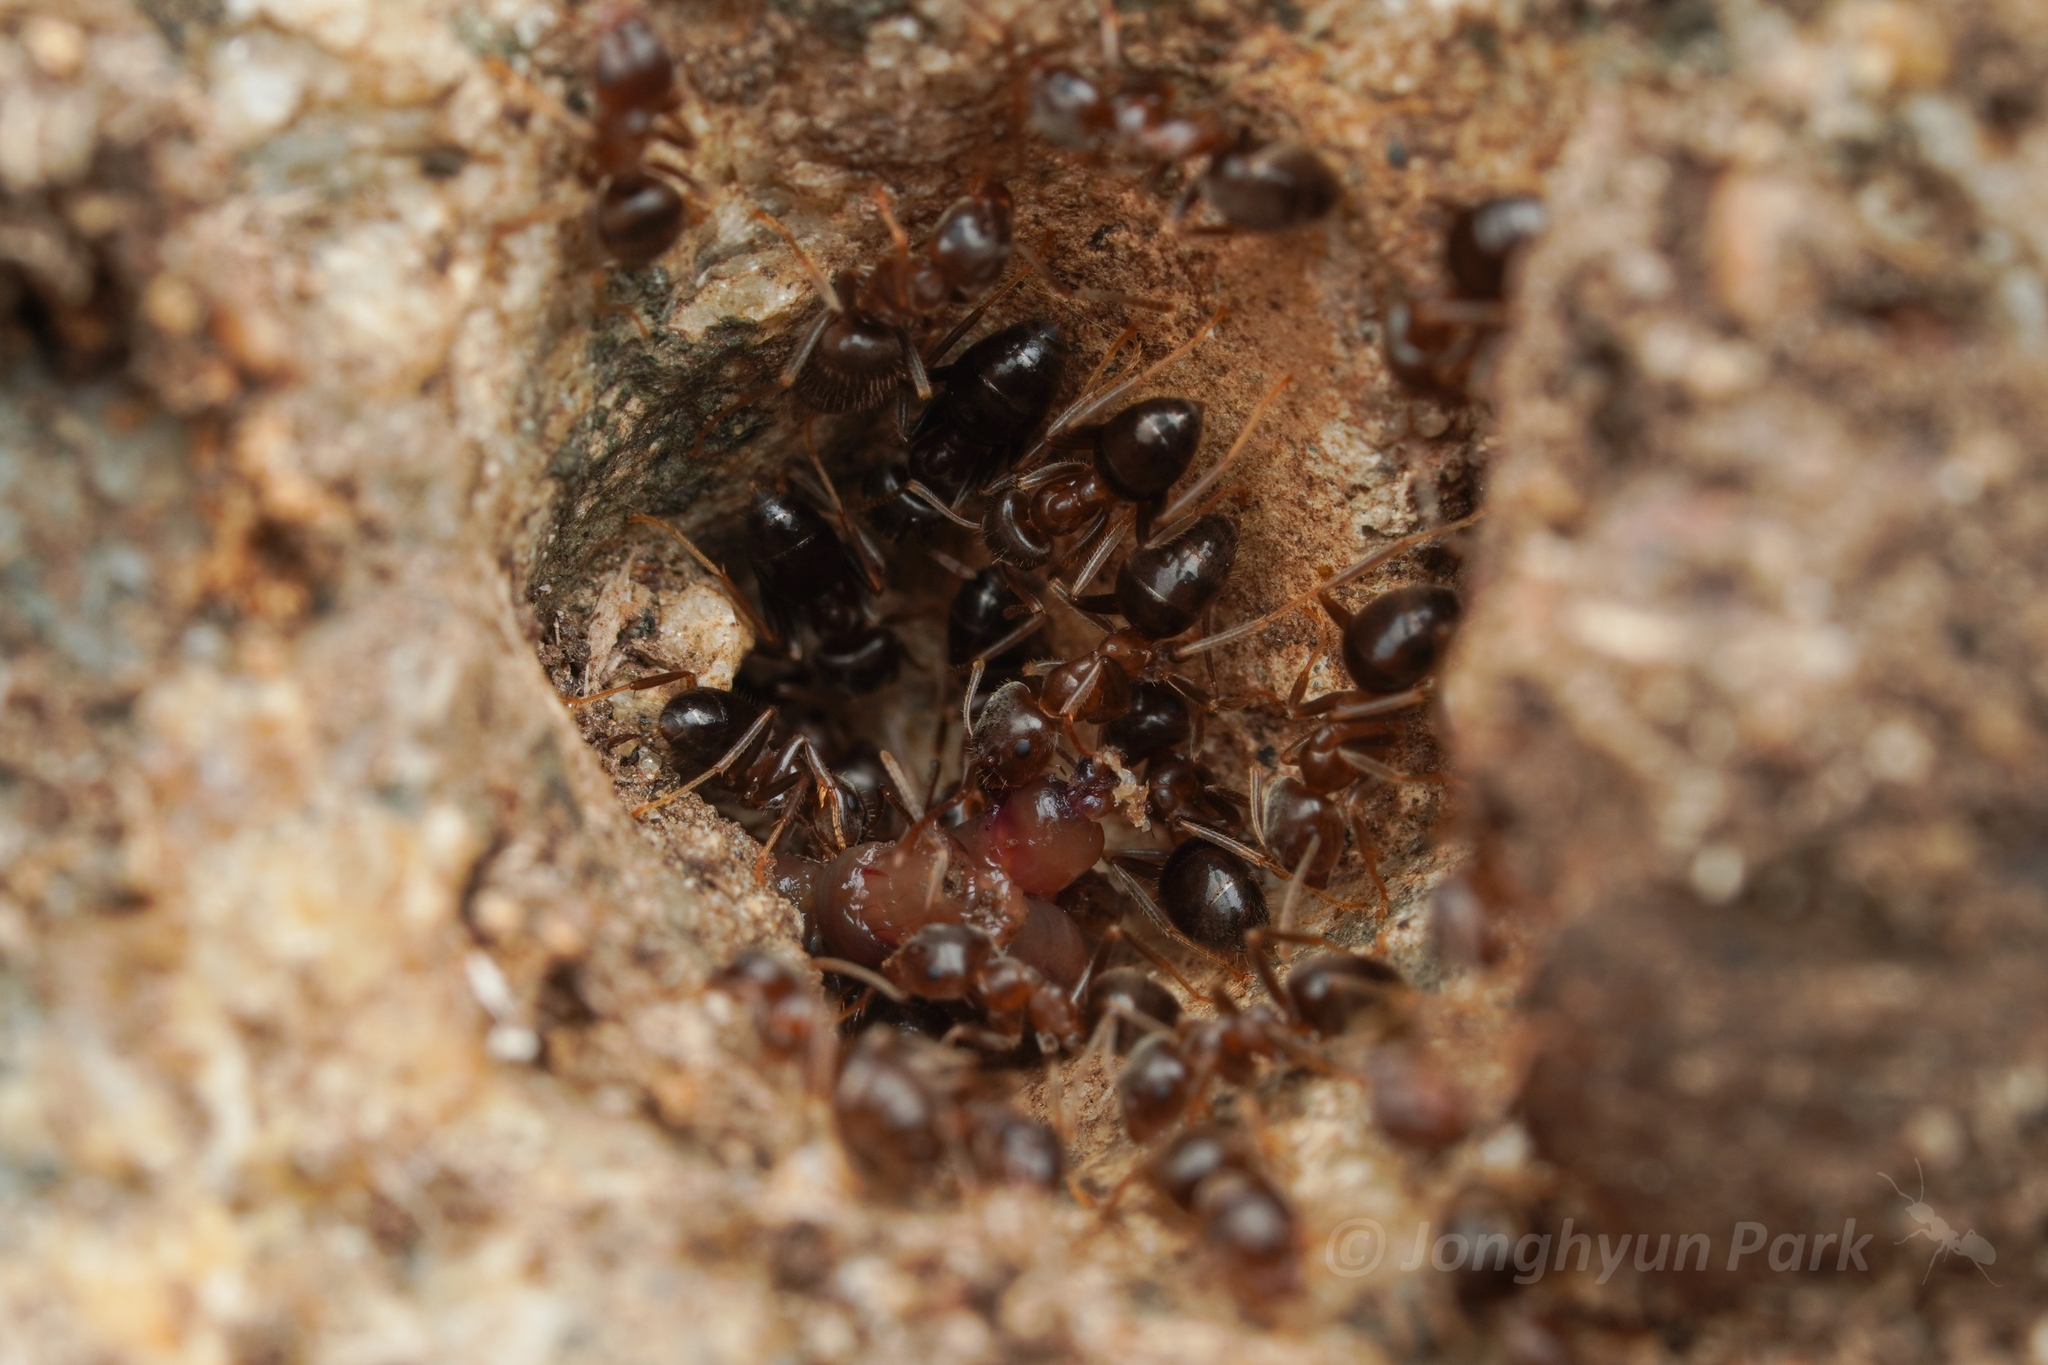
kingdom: Animalia
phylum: Arthropoda
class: Insecta
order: Hymenoptera
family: Formicidae
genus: Lasius
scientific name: Lasius hayashi
